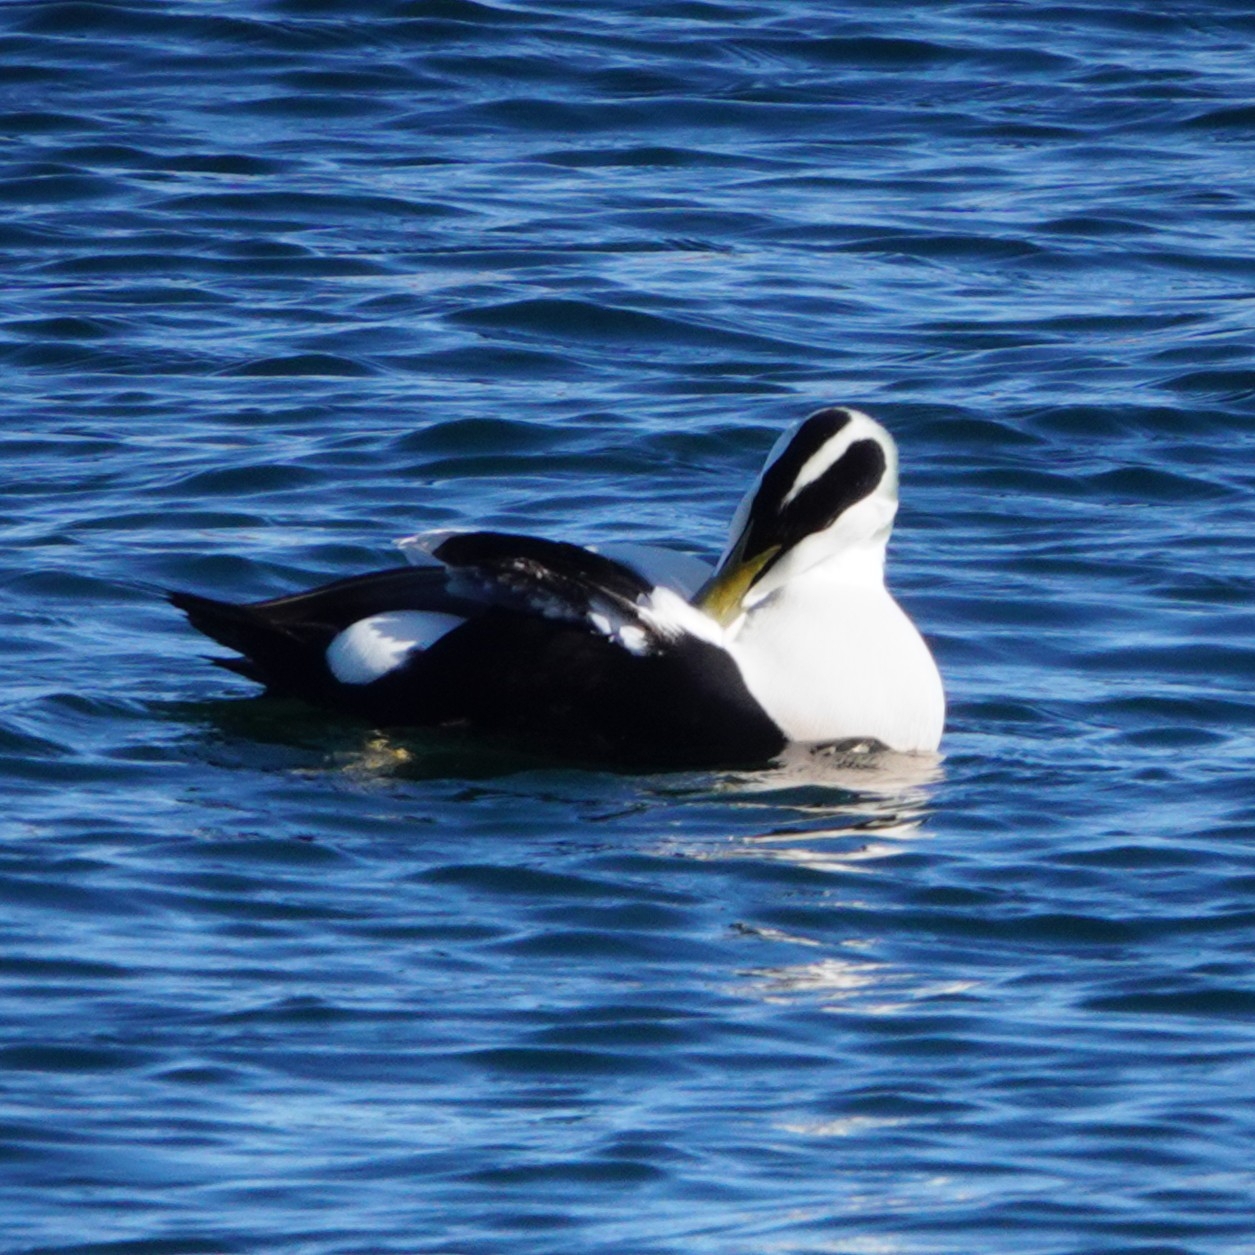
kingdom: Animalia
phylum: Chordata
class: Aves
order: Anseriformes
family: Anatidae
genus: Somateria
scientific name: Somateria mollissima
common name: Common eider
